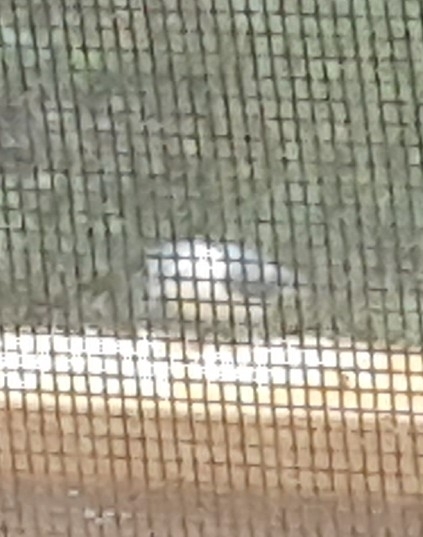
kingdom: Animalia
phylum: Chordata
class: Aves
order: Passeriformes
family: Sittidae
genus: Sitta
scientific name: Sitta carolinensis
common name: White-breasted nuthatch
